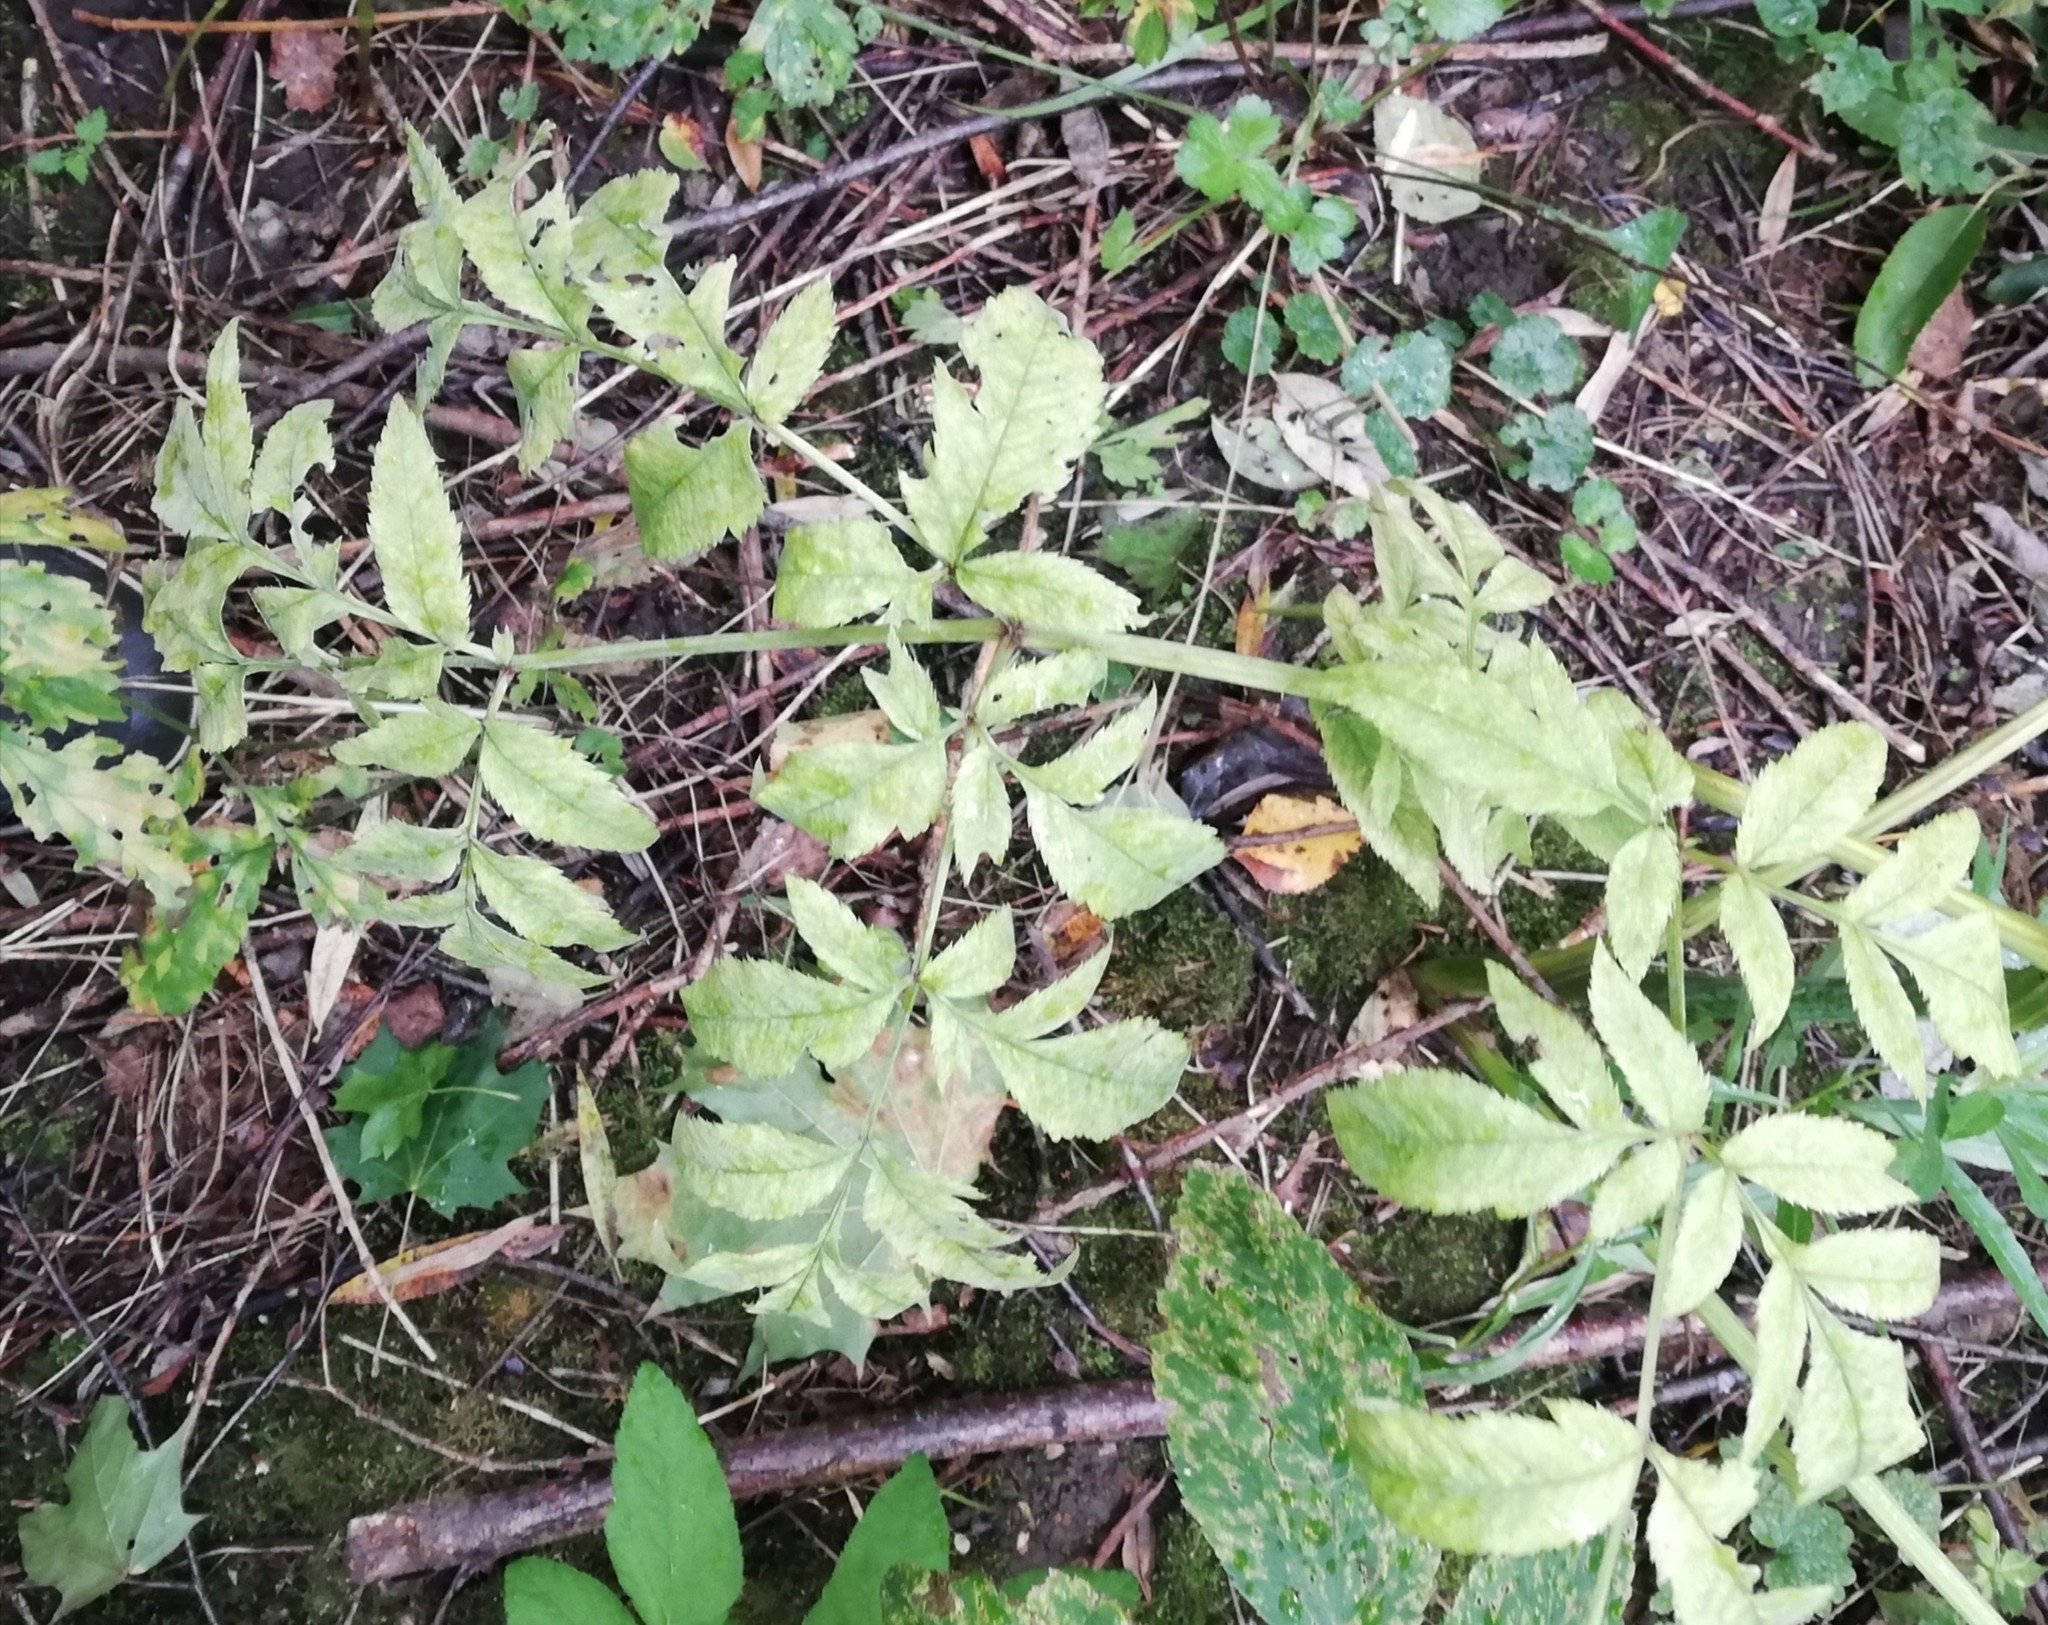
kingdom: Plantae
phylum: Tracheophyta
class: Magnoliopsida
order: Apiales
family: Apiaceae
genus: Angelica
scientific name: Angelica sylvestris
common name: Wild angelica
